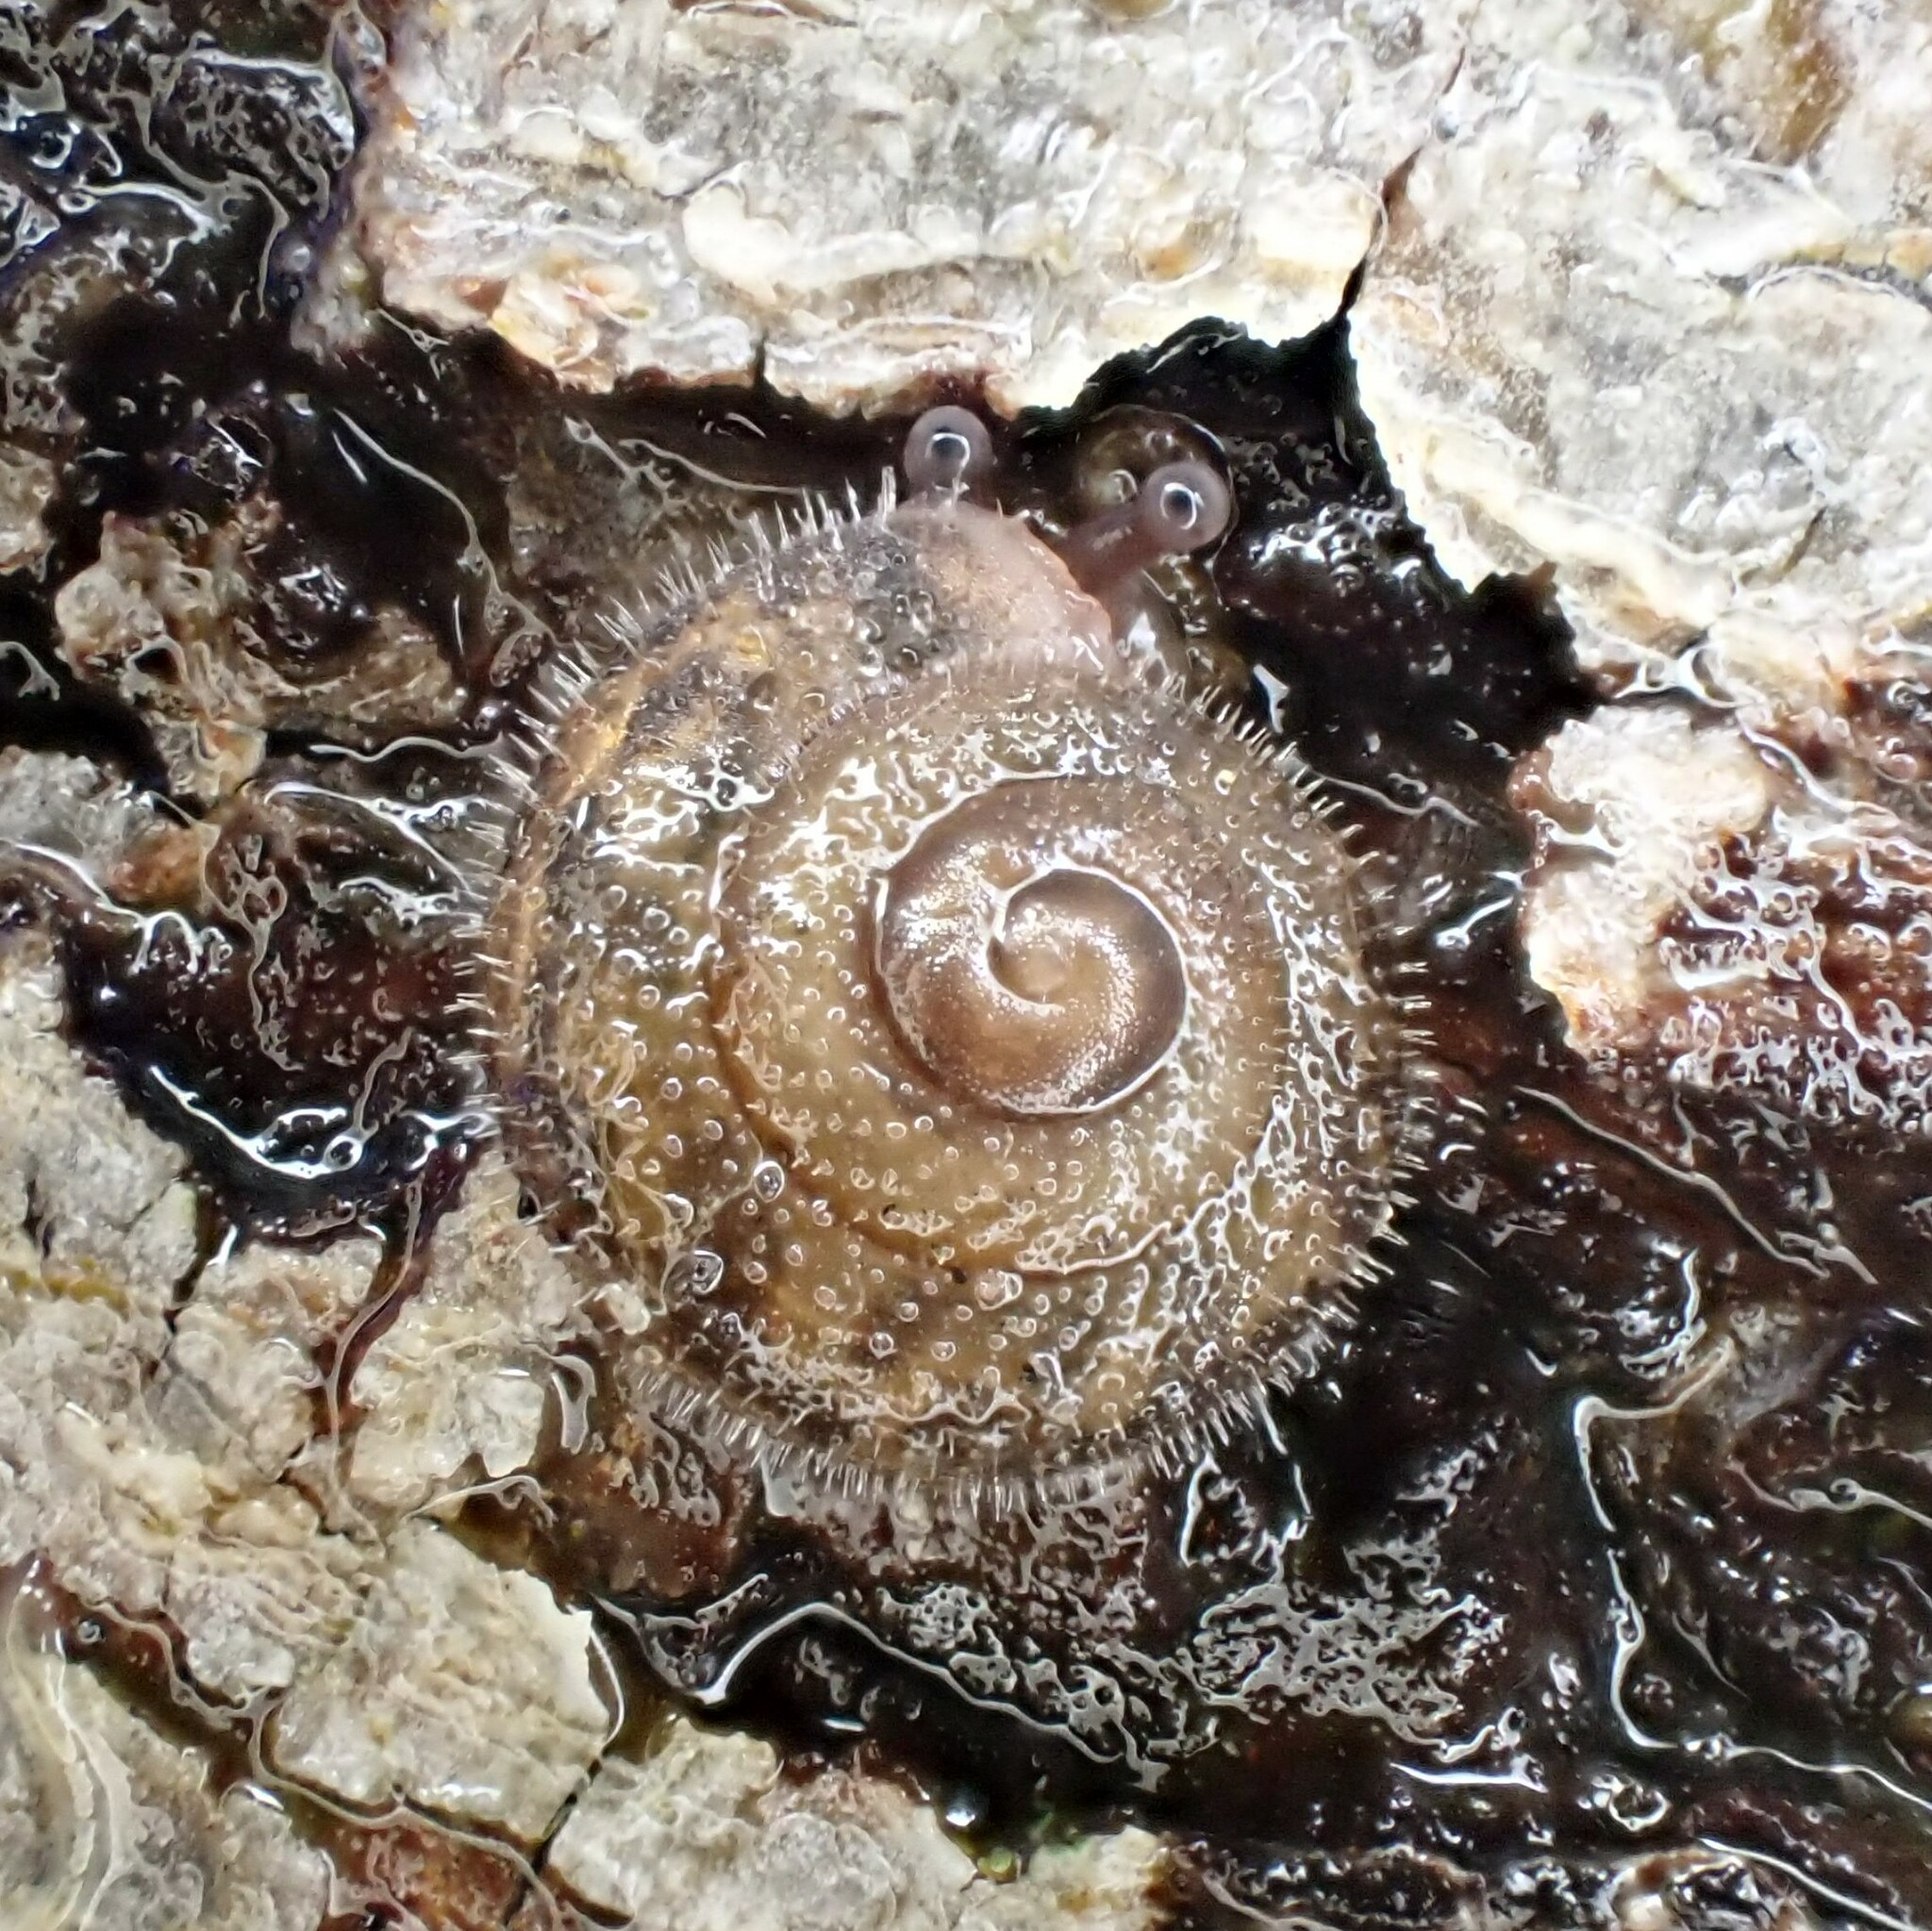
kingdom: Animalia
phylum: Mollusca
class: Gastropoda
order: Stylommatophora
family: Polygyridae
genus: Vespericola
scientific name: Vespericola columbianus
